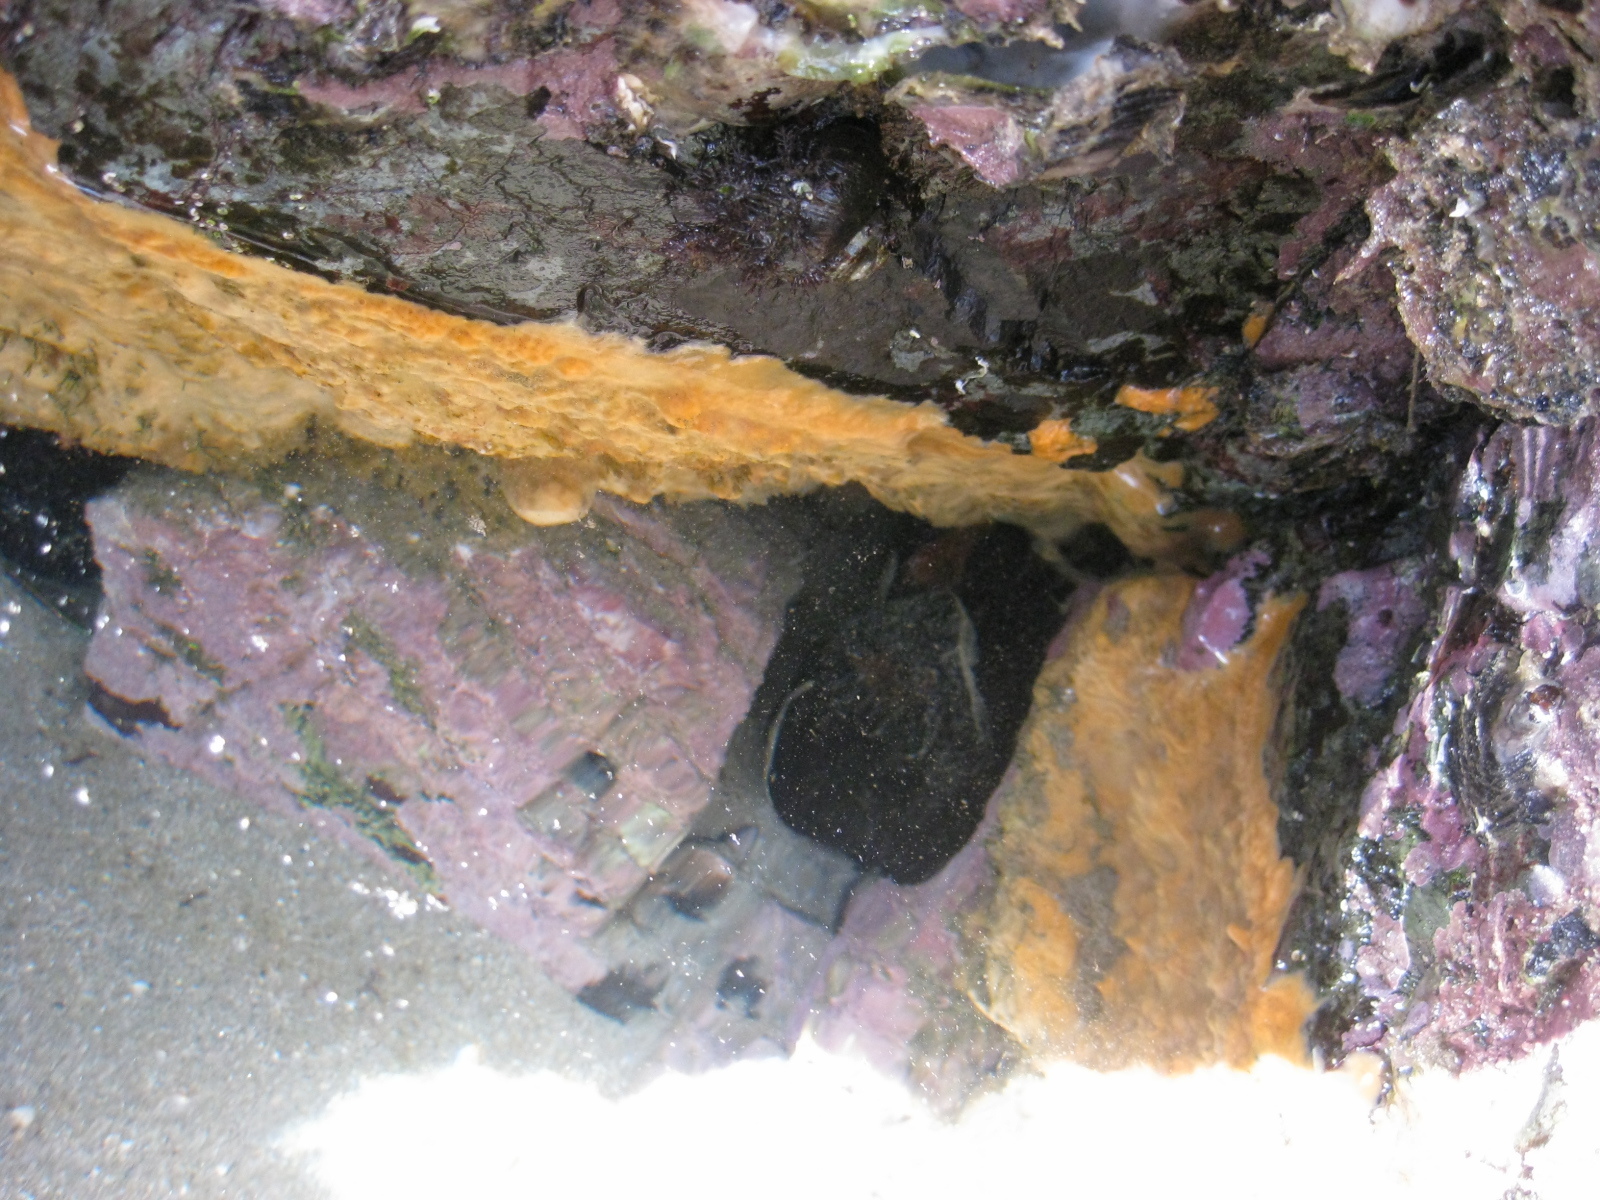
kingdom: Animalia
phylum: Porifera
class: Demospongiae
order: Suberitida
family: Halichondriidae
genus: Halichondria
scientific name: Halichondria moorei
